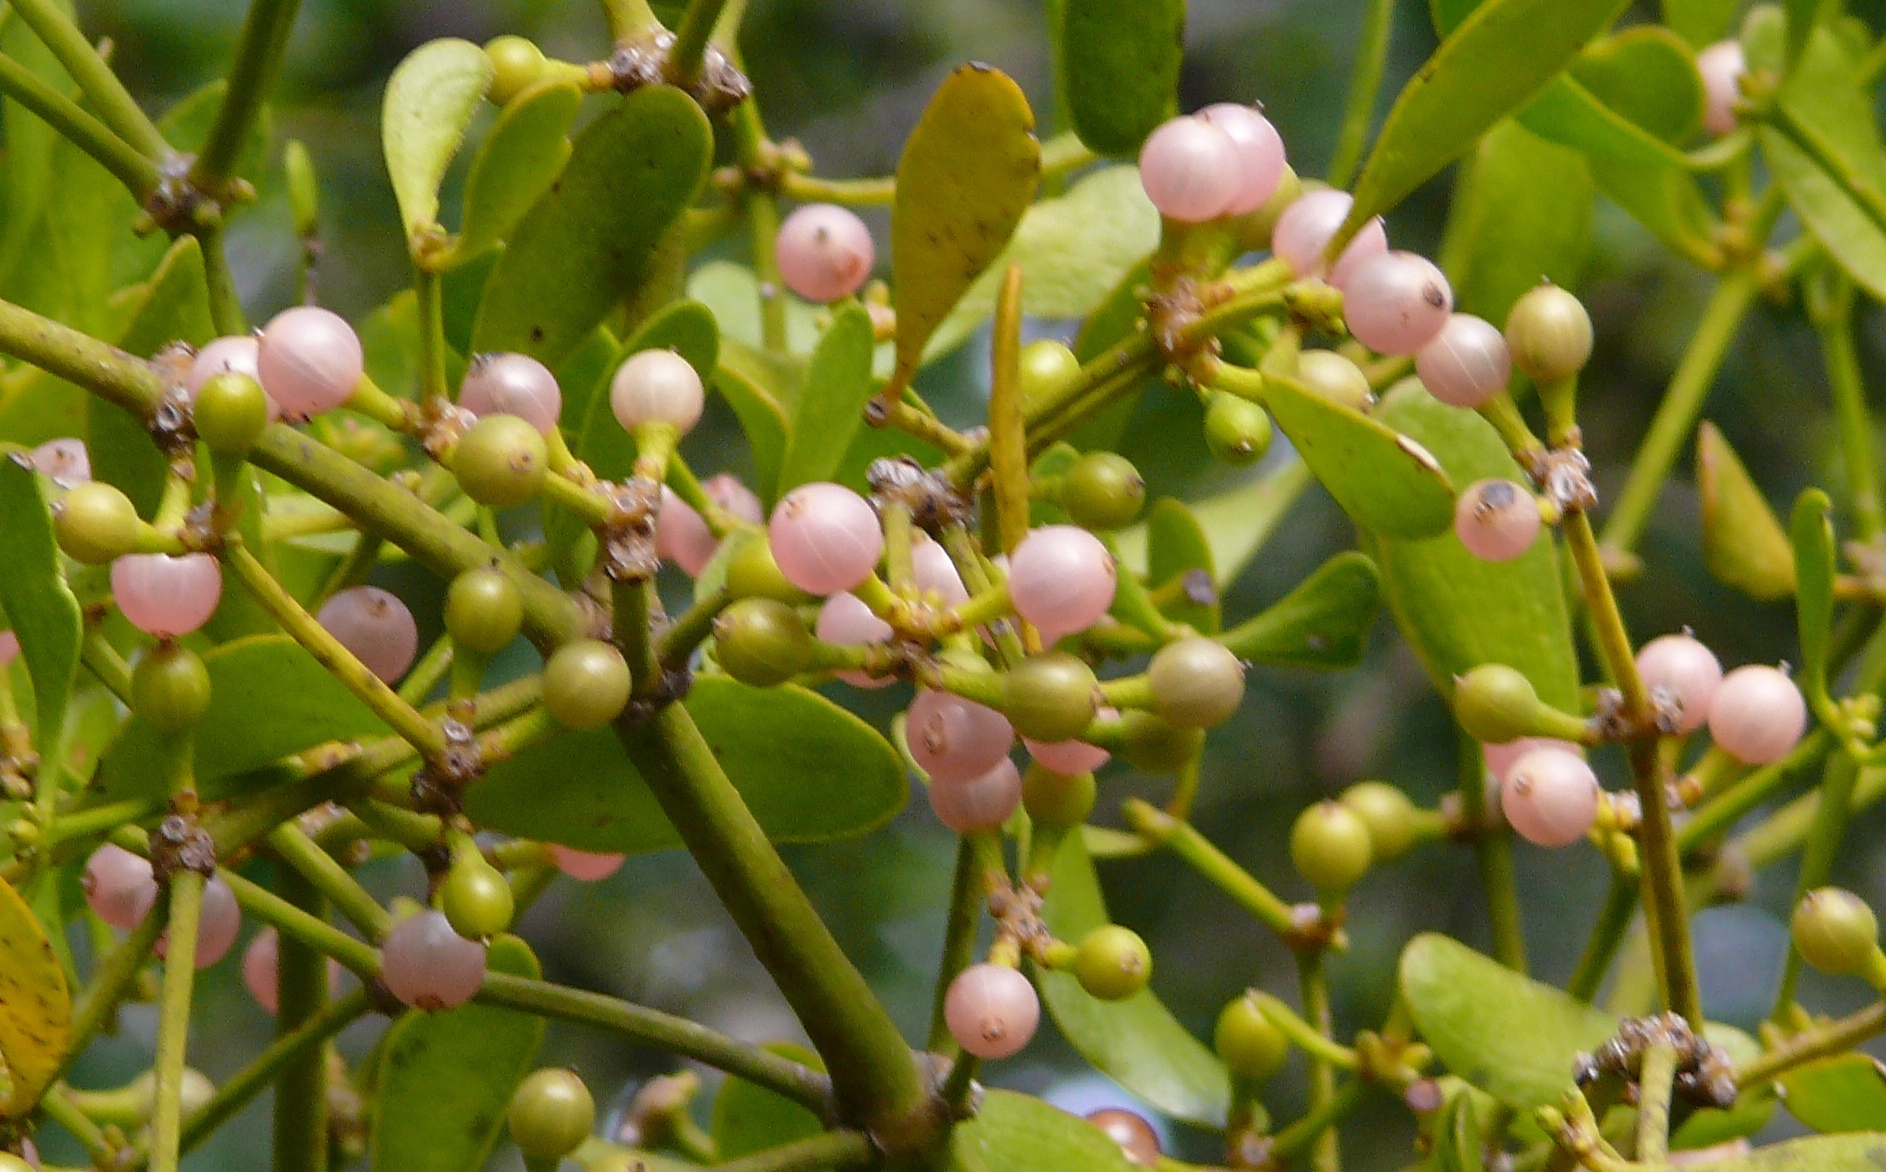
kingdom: Plantae
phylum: Tracheophyta
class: Magnoliopsida
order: Santalales
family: Viscaceae
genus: Viscum
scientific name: Viscum obscurum
